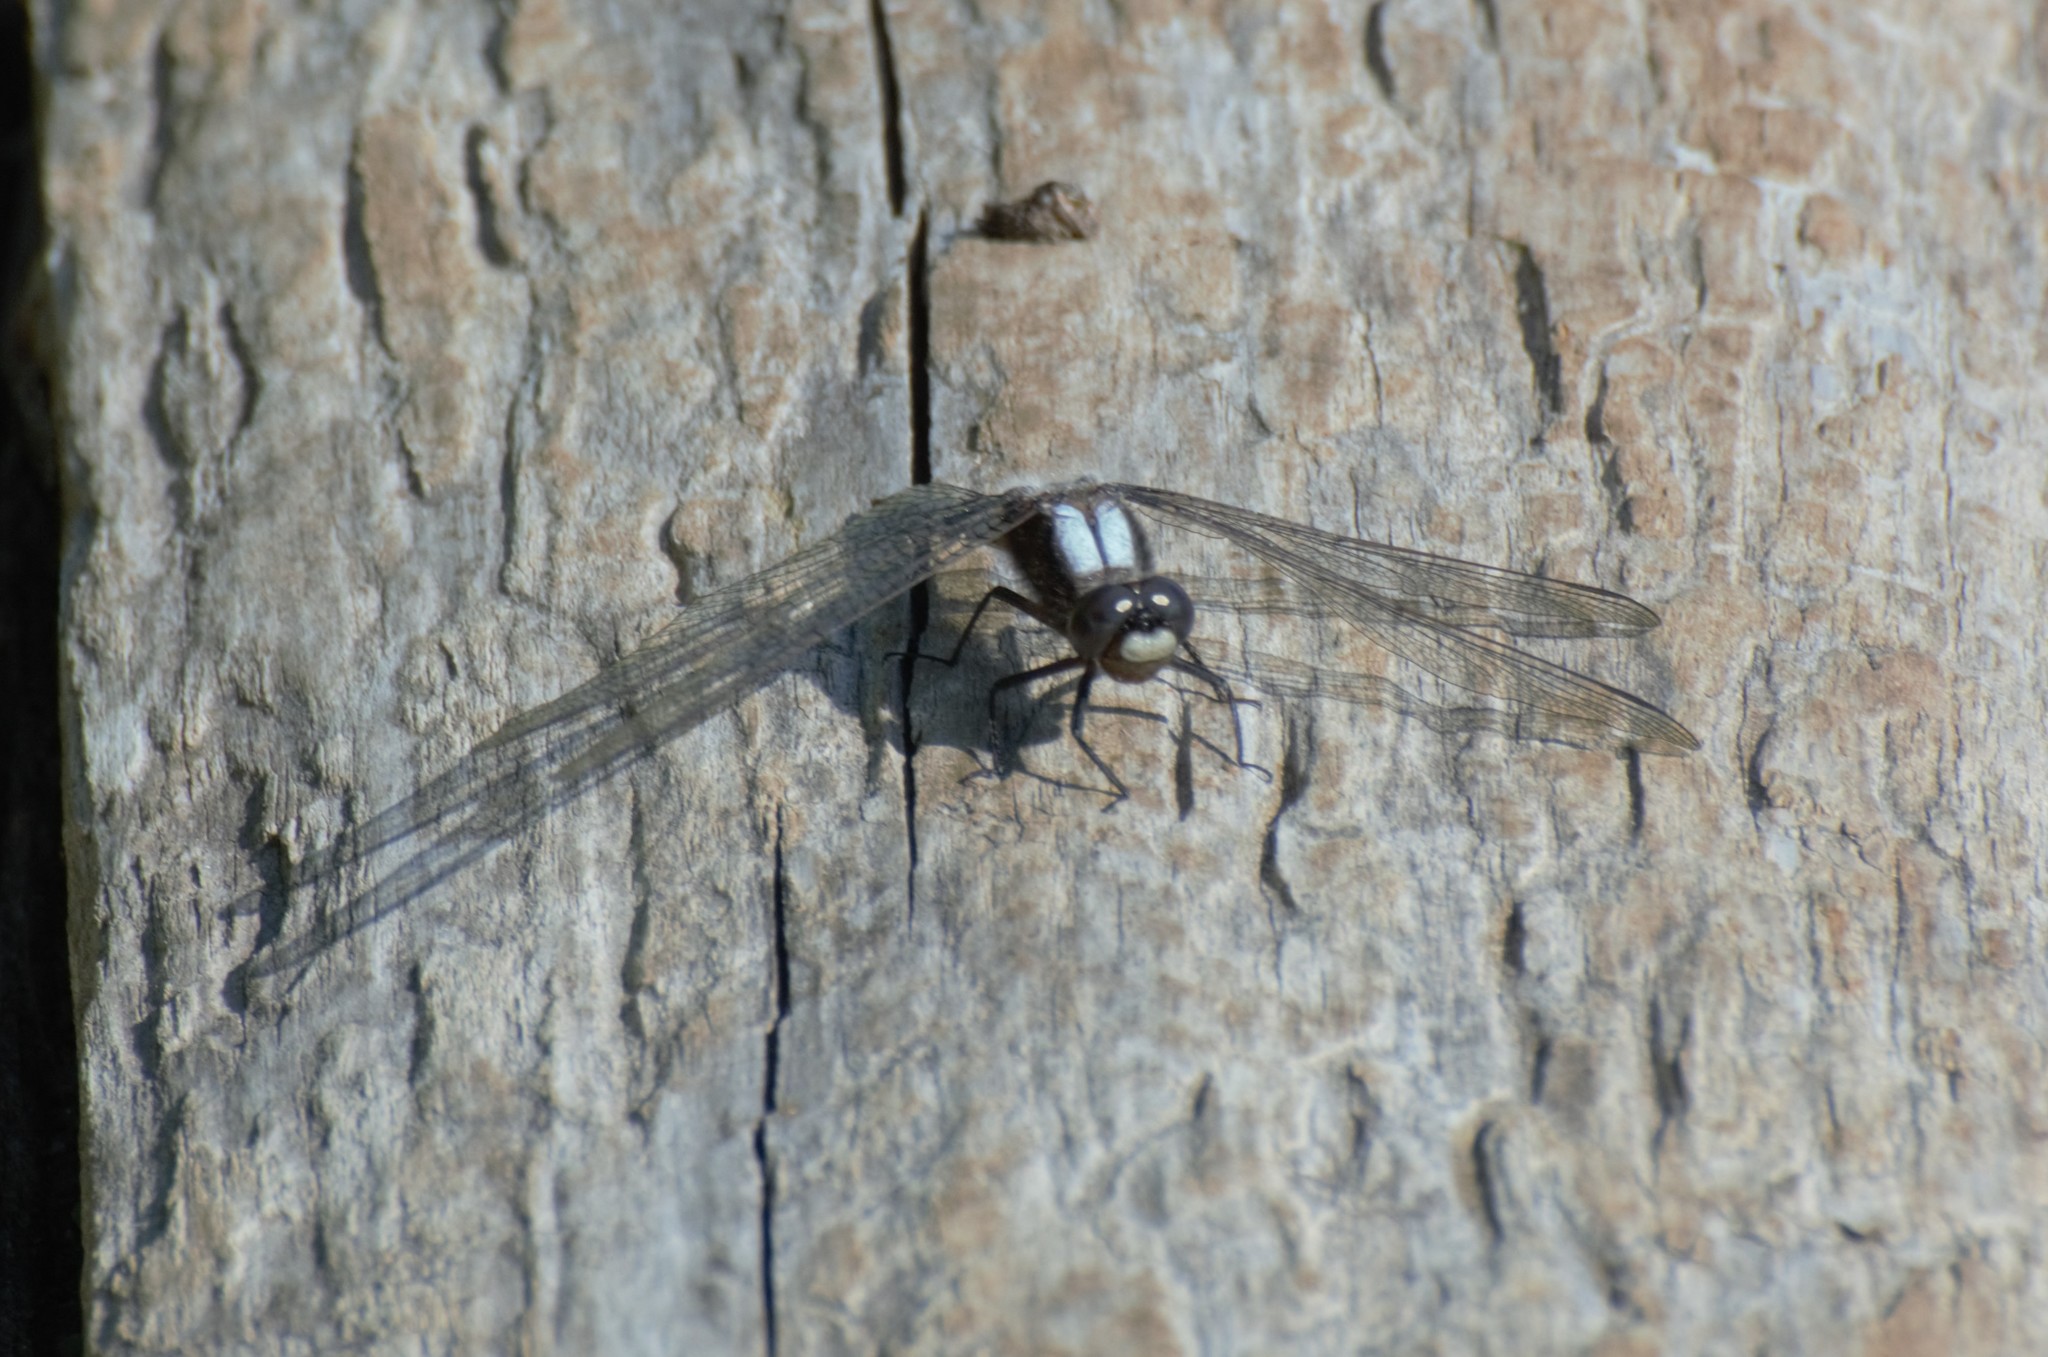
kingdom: Animalia
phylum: Arthropoda
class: Insecta
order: Odonata
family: Libellulidae
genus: Ladona
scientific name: Ladona julia
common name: Chalk-fronted corporal
